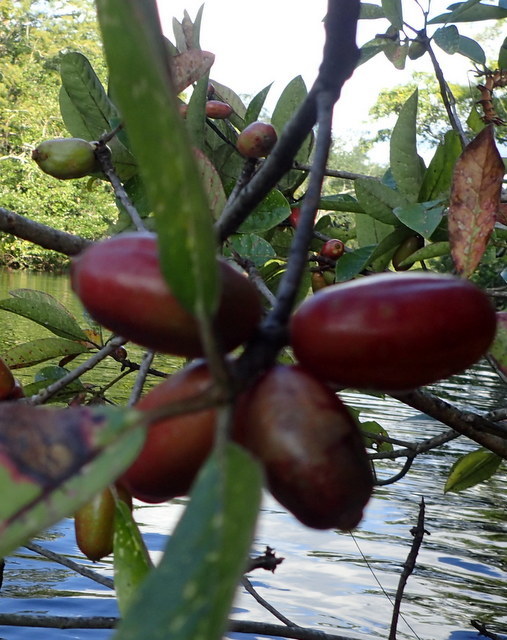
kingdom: Plantae
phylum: Tracheophyta
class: Magnoliopsida
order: Cornales
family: Nyssaceae
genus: Nyssa
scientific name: Nyssa ogeche
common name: Ogeechee tupelo
